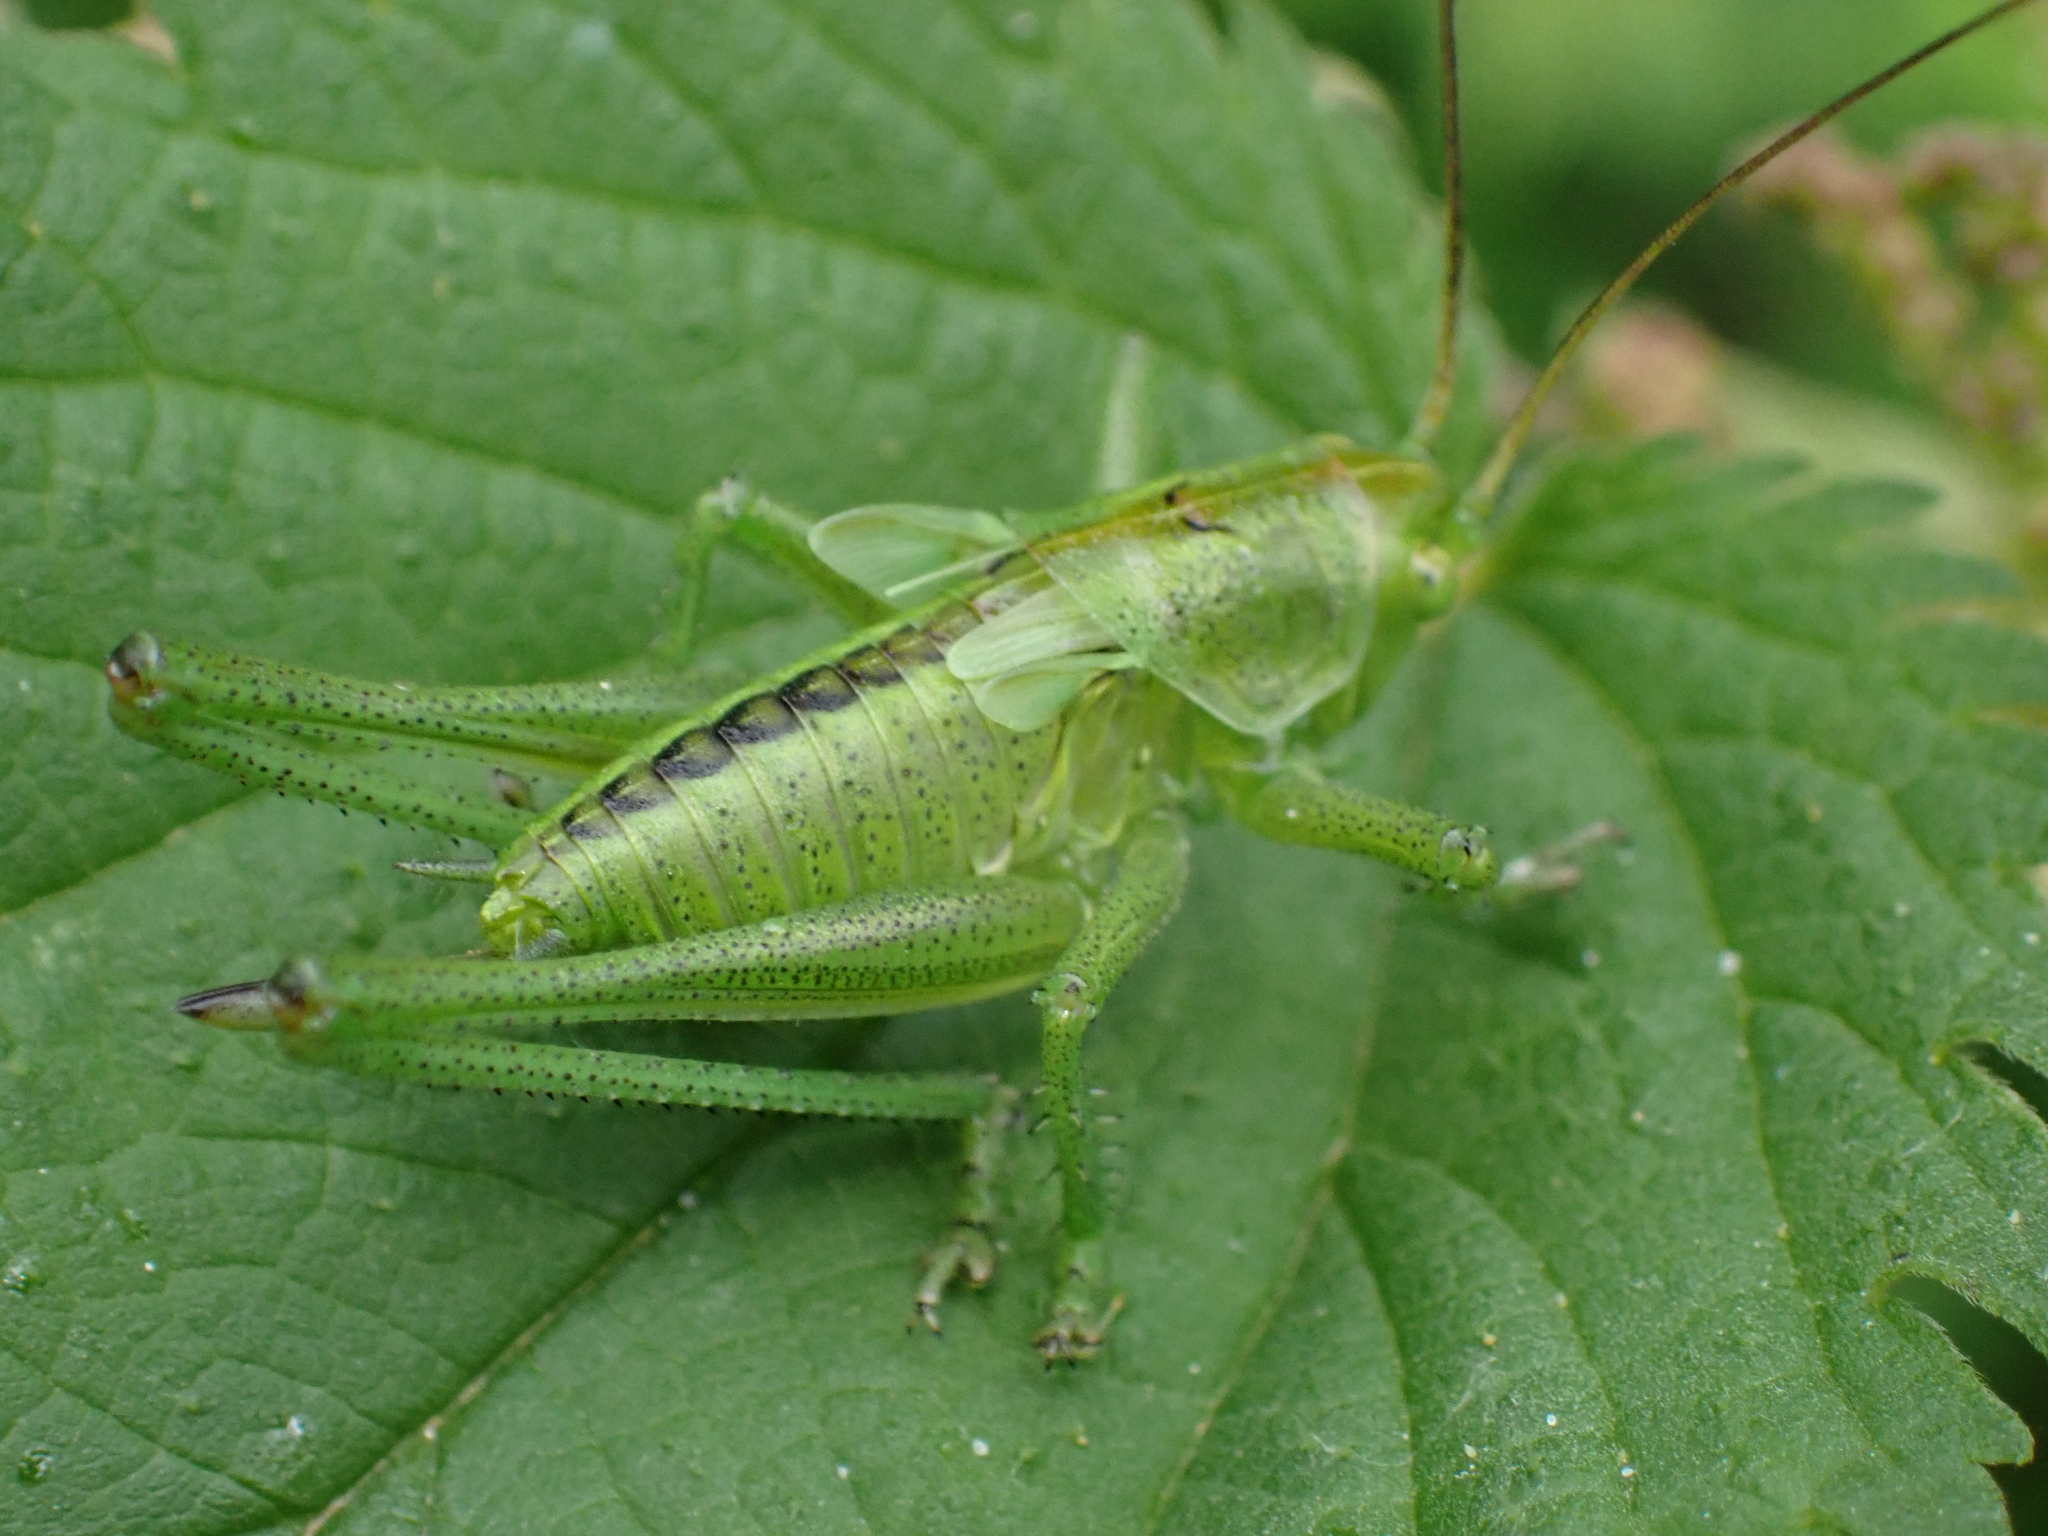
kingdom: Animalia
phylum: Arthropoda
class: Insecta
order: Orthoptera
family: Tettigoniidae
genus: Tettigonia
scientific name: Tettigonia viridissima
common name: Great green bush-cricket
